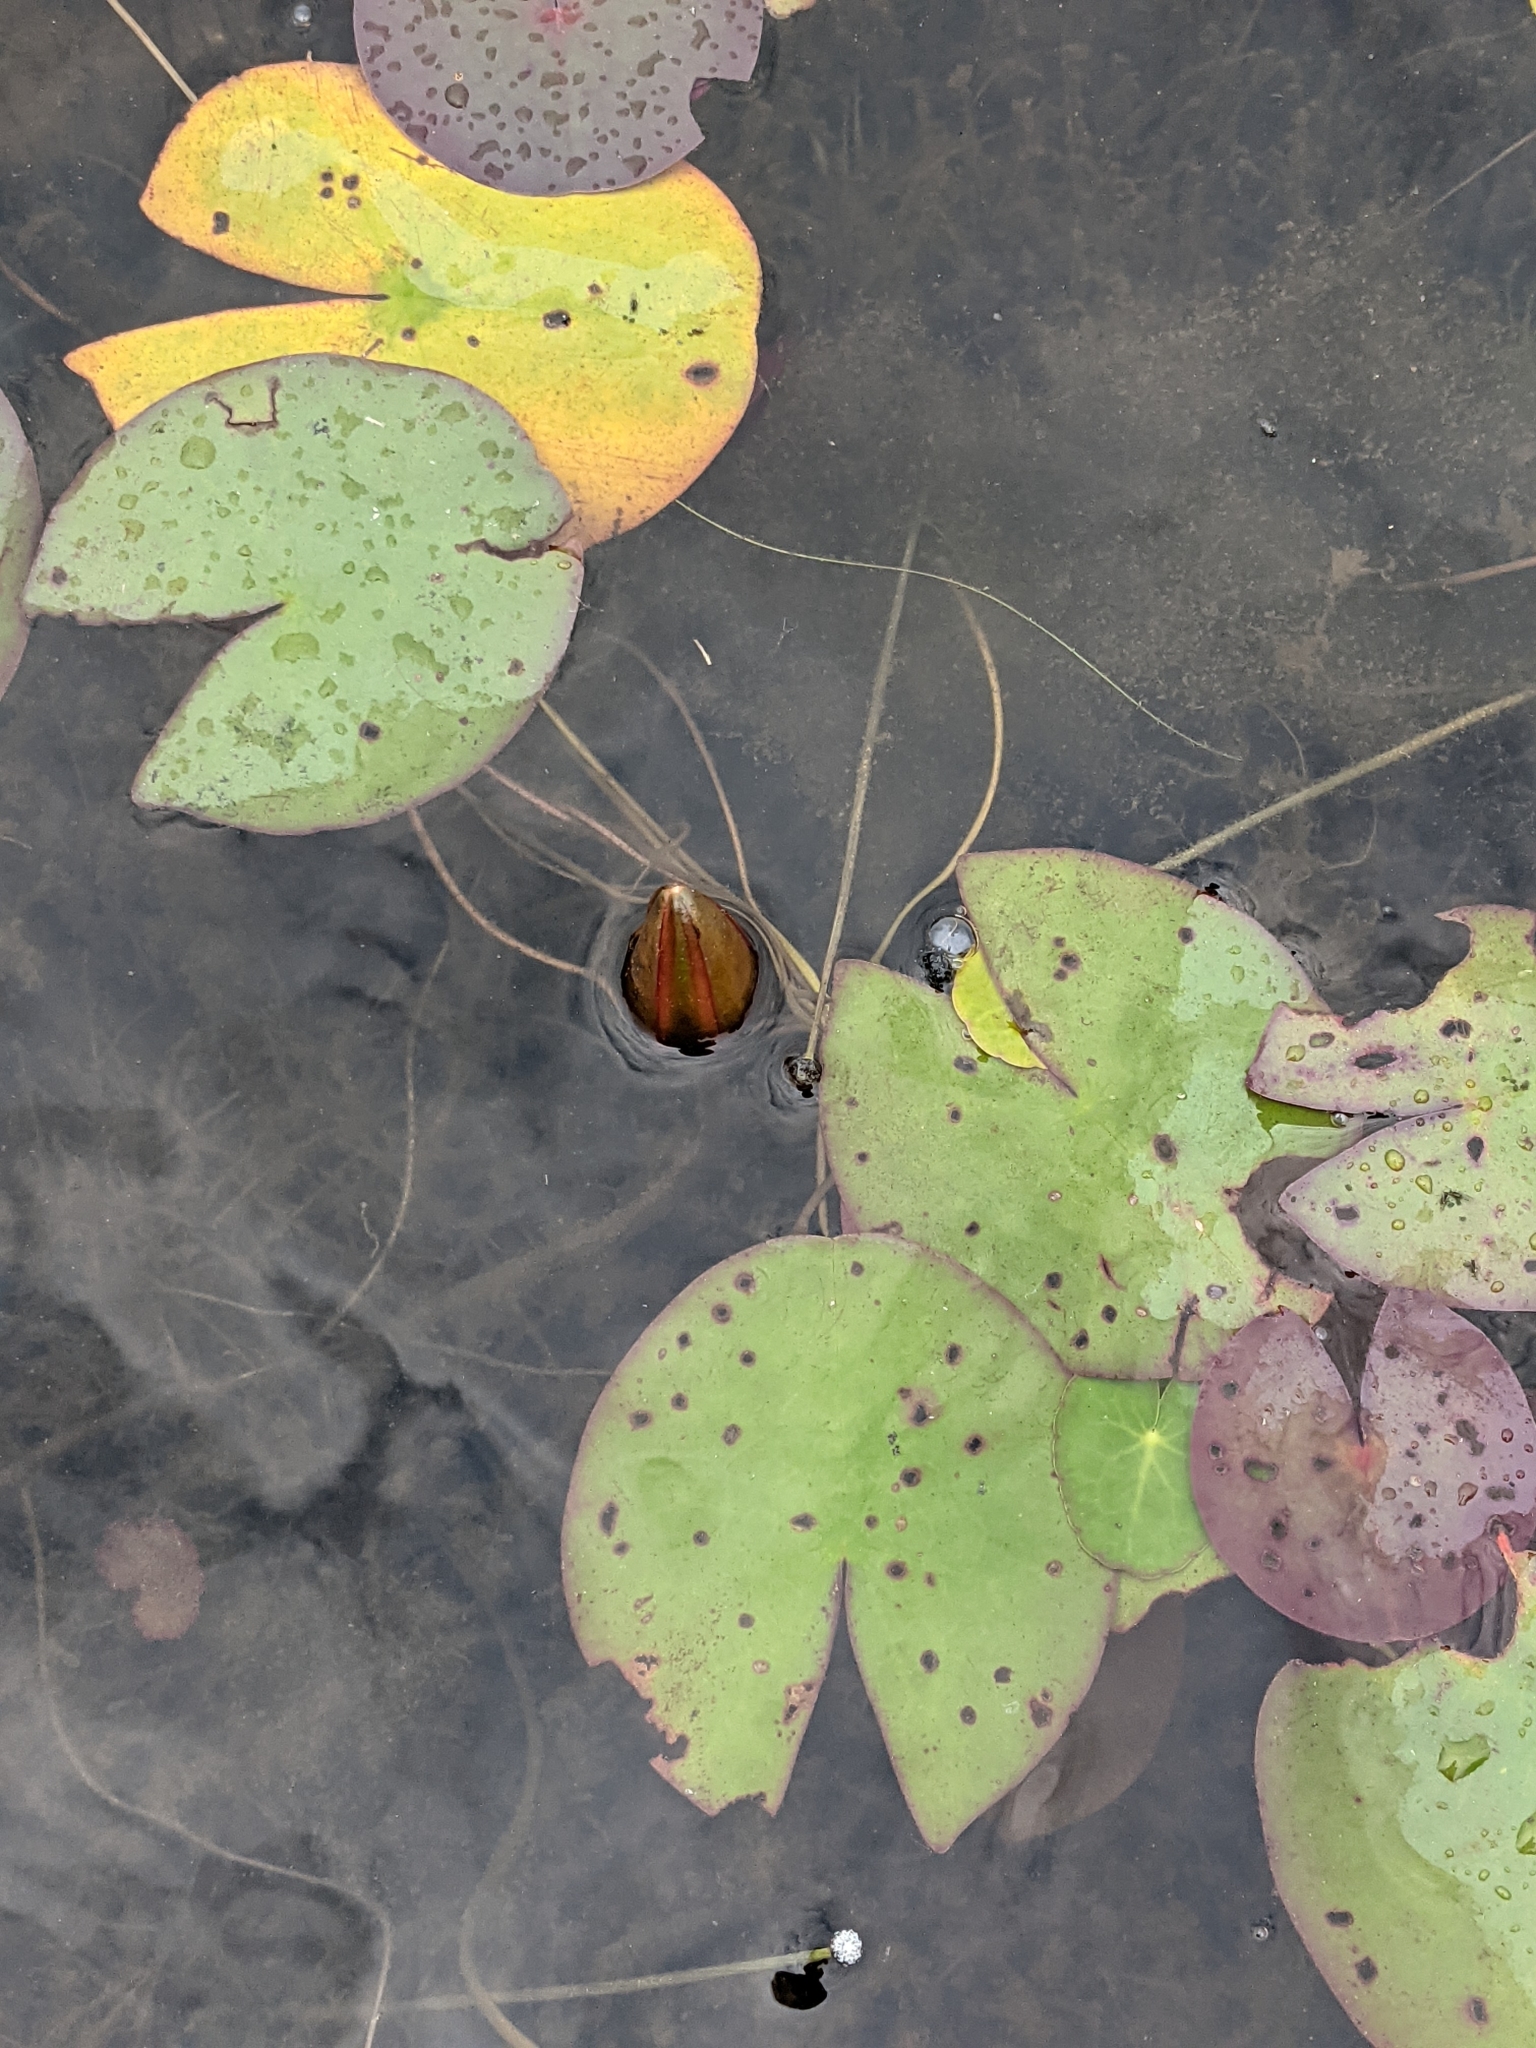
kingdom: Plantae
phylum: Tracheophyta
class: Magnoliopsida
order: Nymphaeales
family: Nymphaeaceae
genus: Nymphaea
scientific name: Nymphaea odorata
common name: Fragrant water-lily
